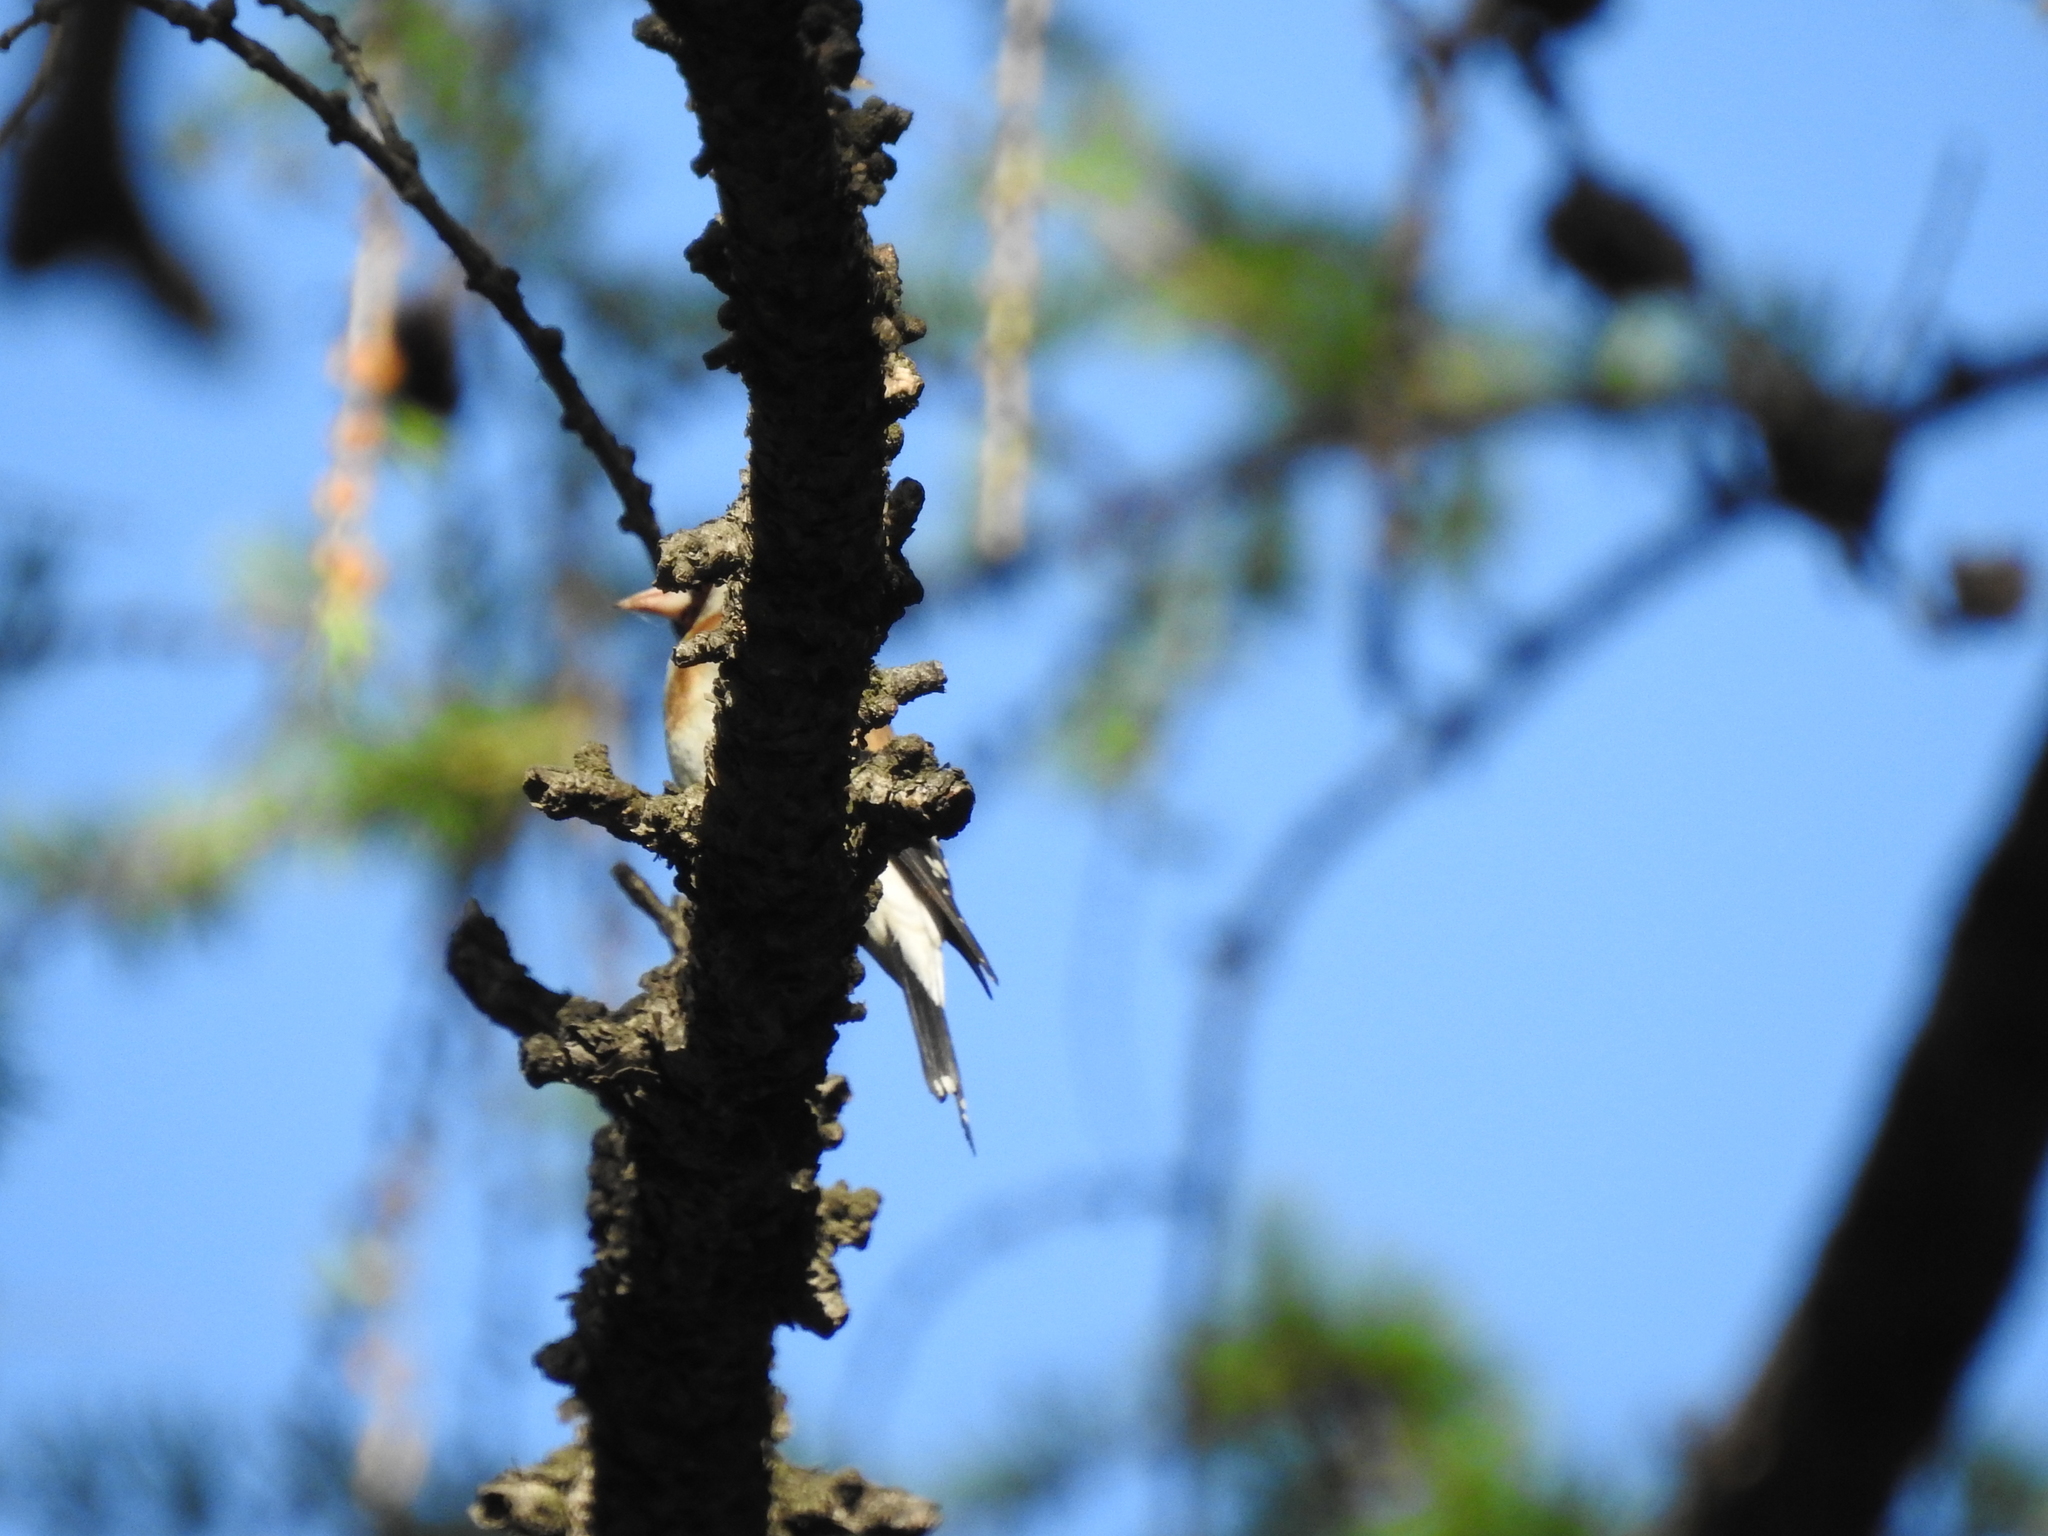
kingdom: Animalia
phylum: Chordata
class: Aves
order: Passeriformes
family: Fringillidae
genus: Carduelis
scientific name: Carduelis carduelis
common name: European goldfinch
